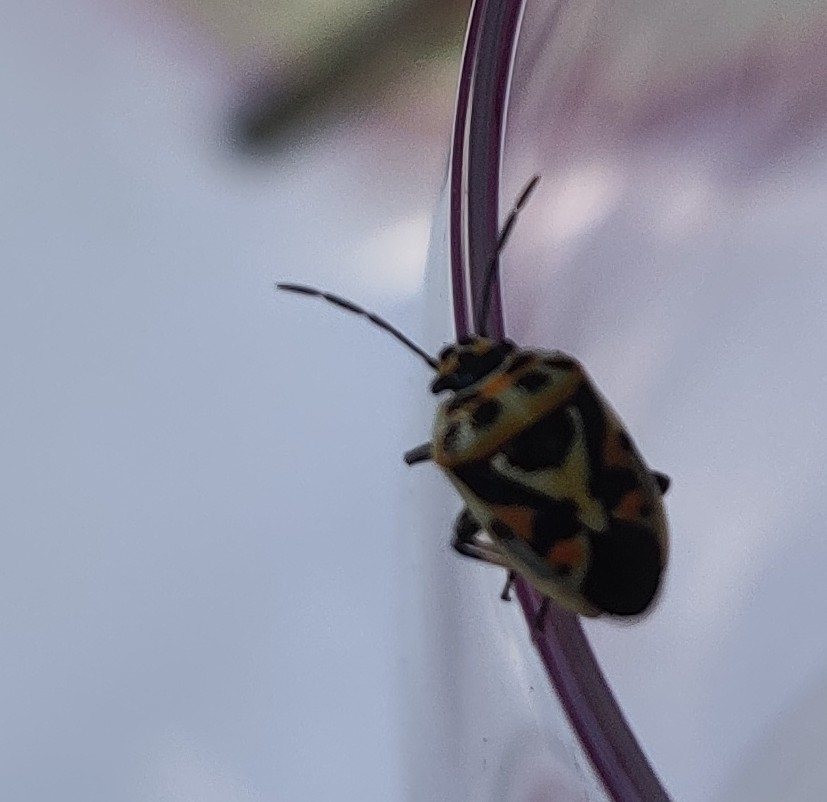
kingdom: Animalia
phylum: Arthropoda
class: Insecta
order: Hemiptera
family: Pentatomidae
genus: Eurydema
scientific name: Eurydema ornata
